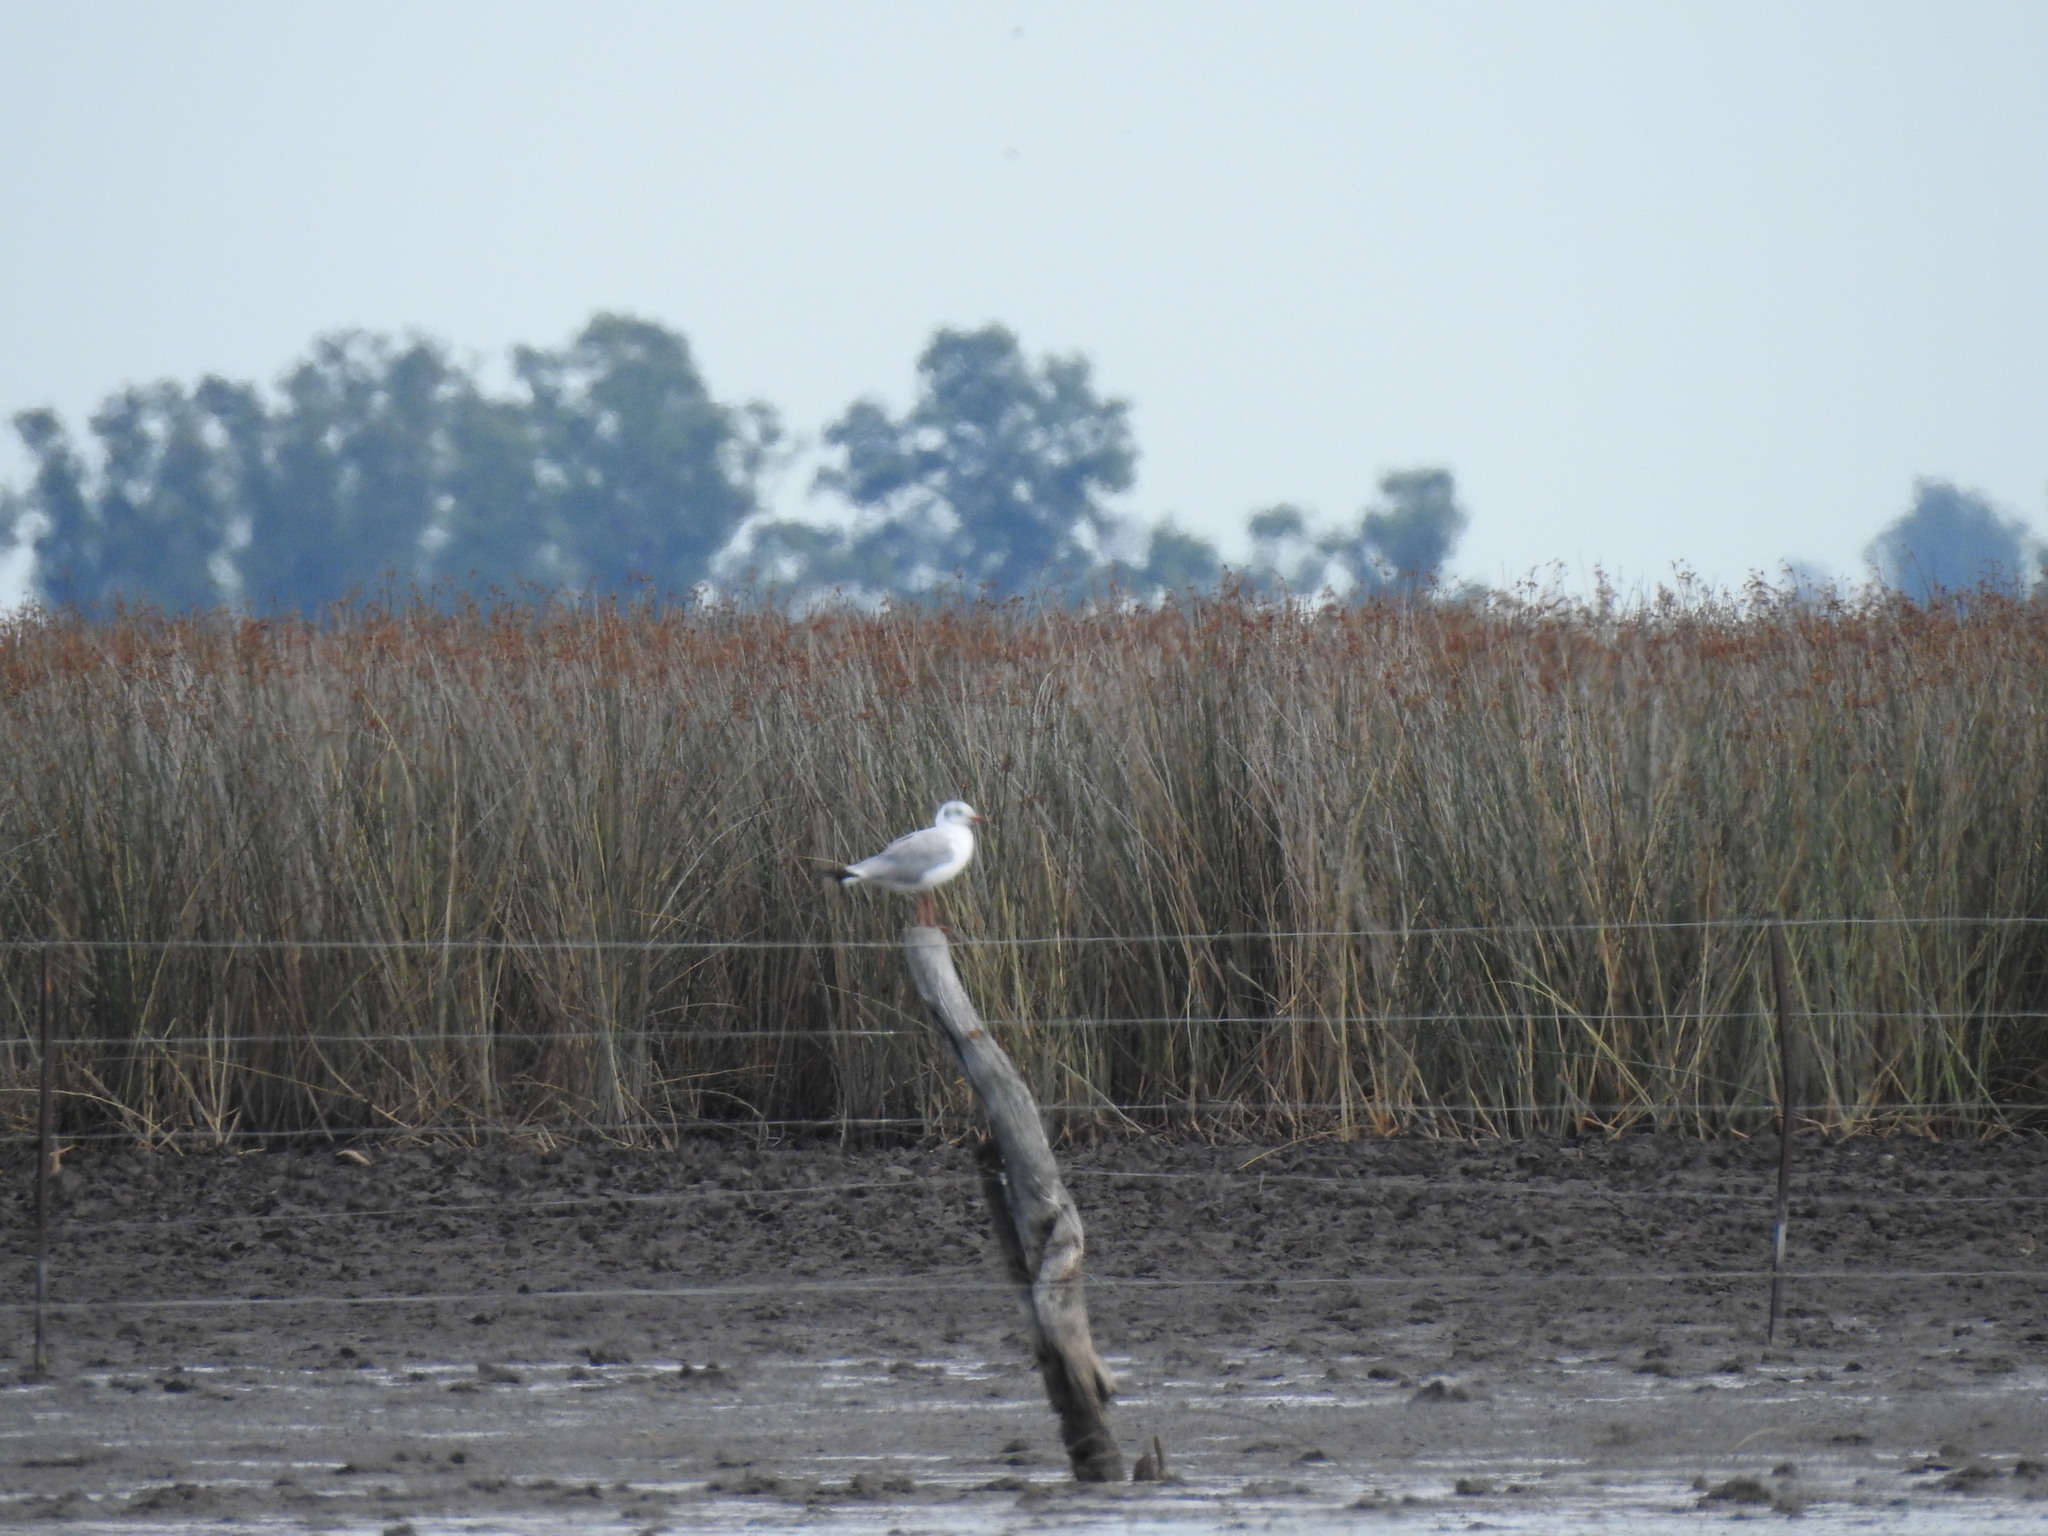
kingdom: Animalia
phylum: Chordata
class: Aves
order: Charadriiformes
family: Laridae
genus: Chroicocephalus
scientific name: Chroicocephalus cirrocephalus
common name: Grey-headed gull
